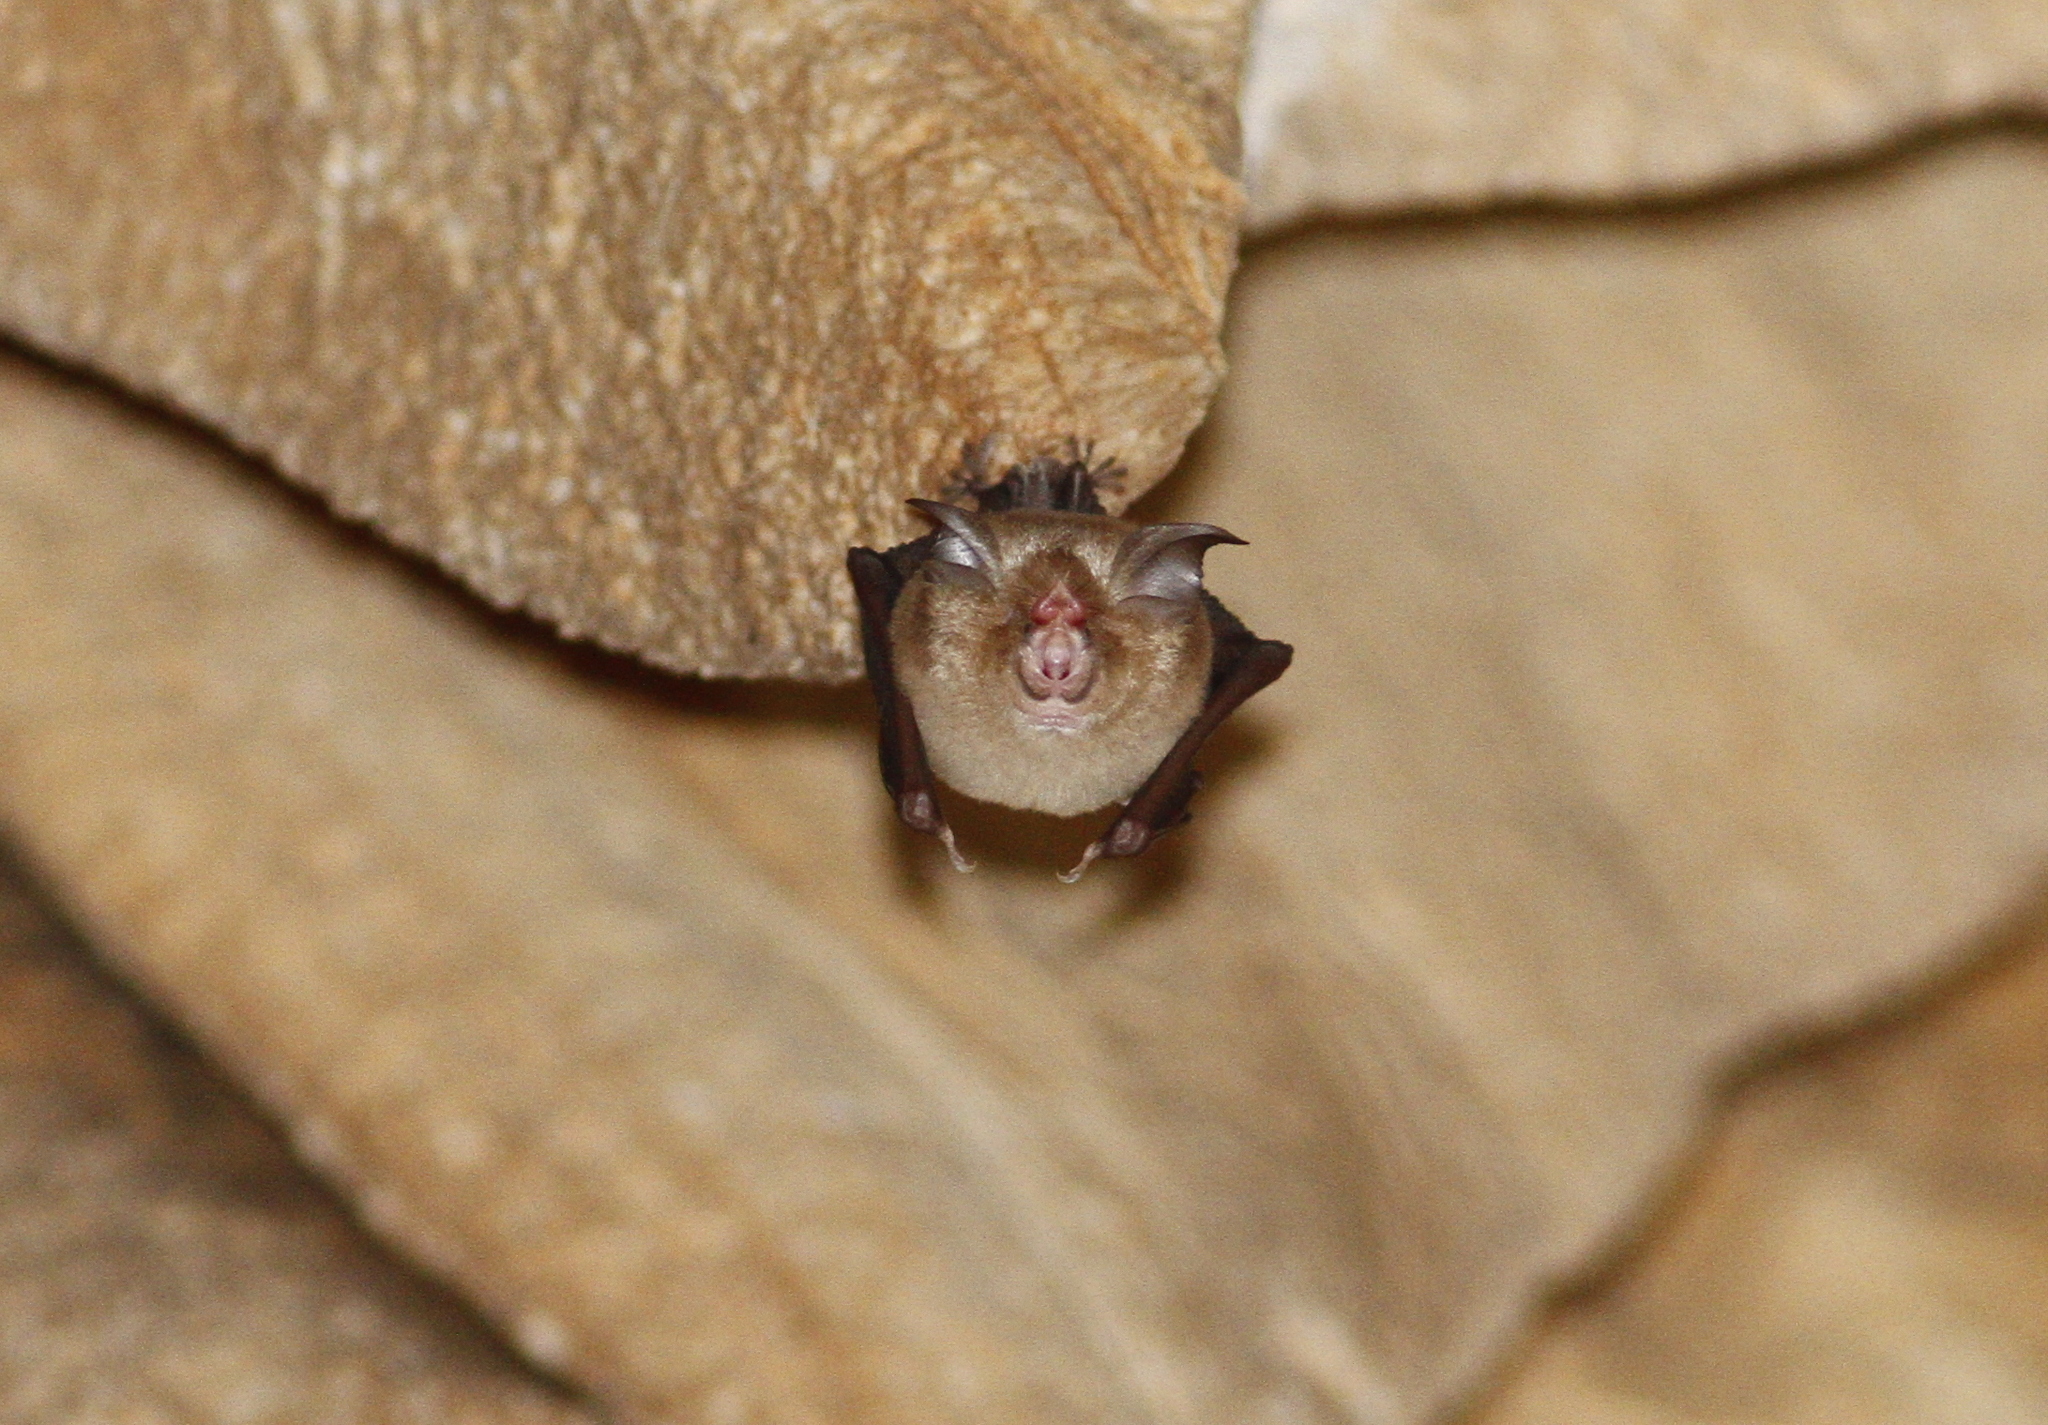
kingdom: Animalia
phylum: Chordata
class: Mammalia
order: Chiroptera
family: Rhinolophidae
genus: Rhinolophus
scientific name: Rhinolophus coelophyllus
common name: Croslet horseshoe bat
